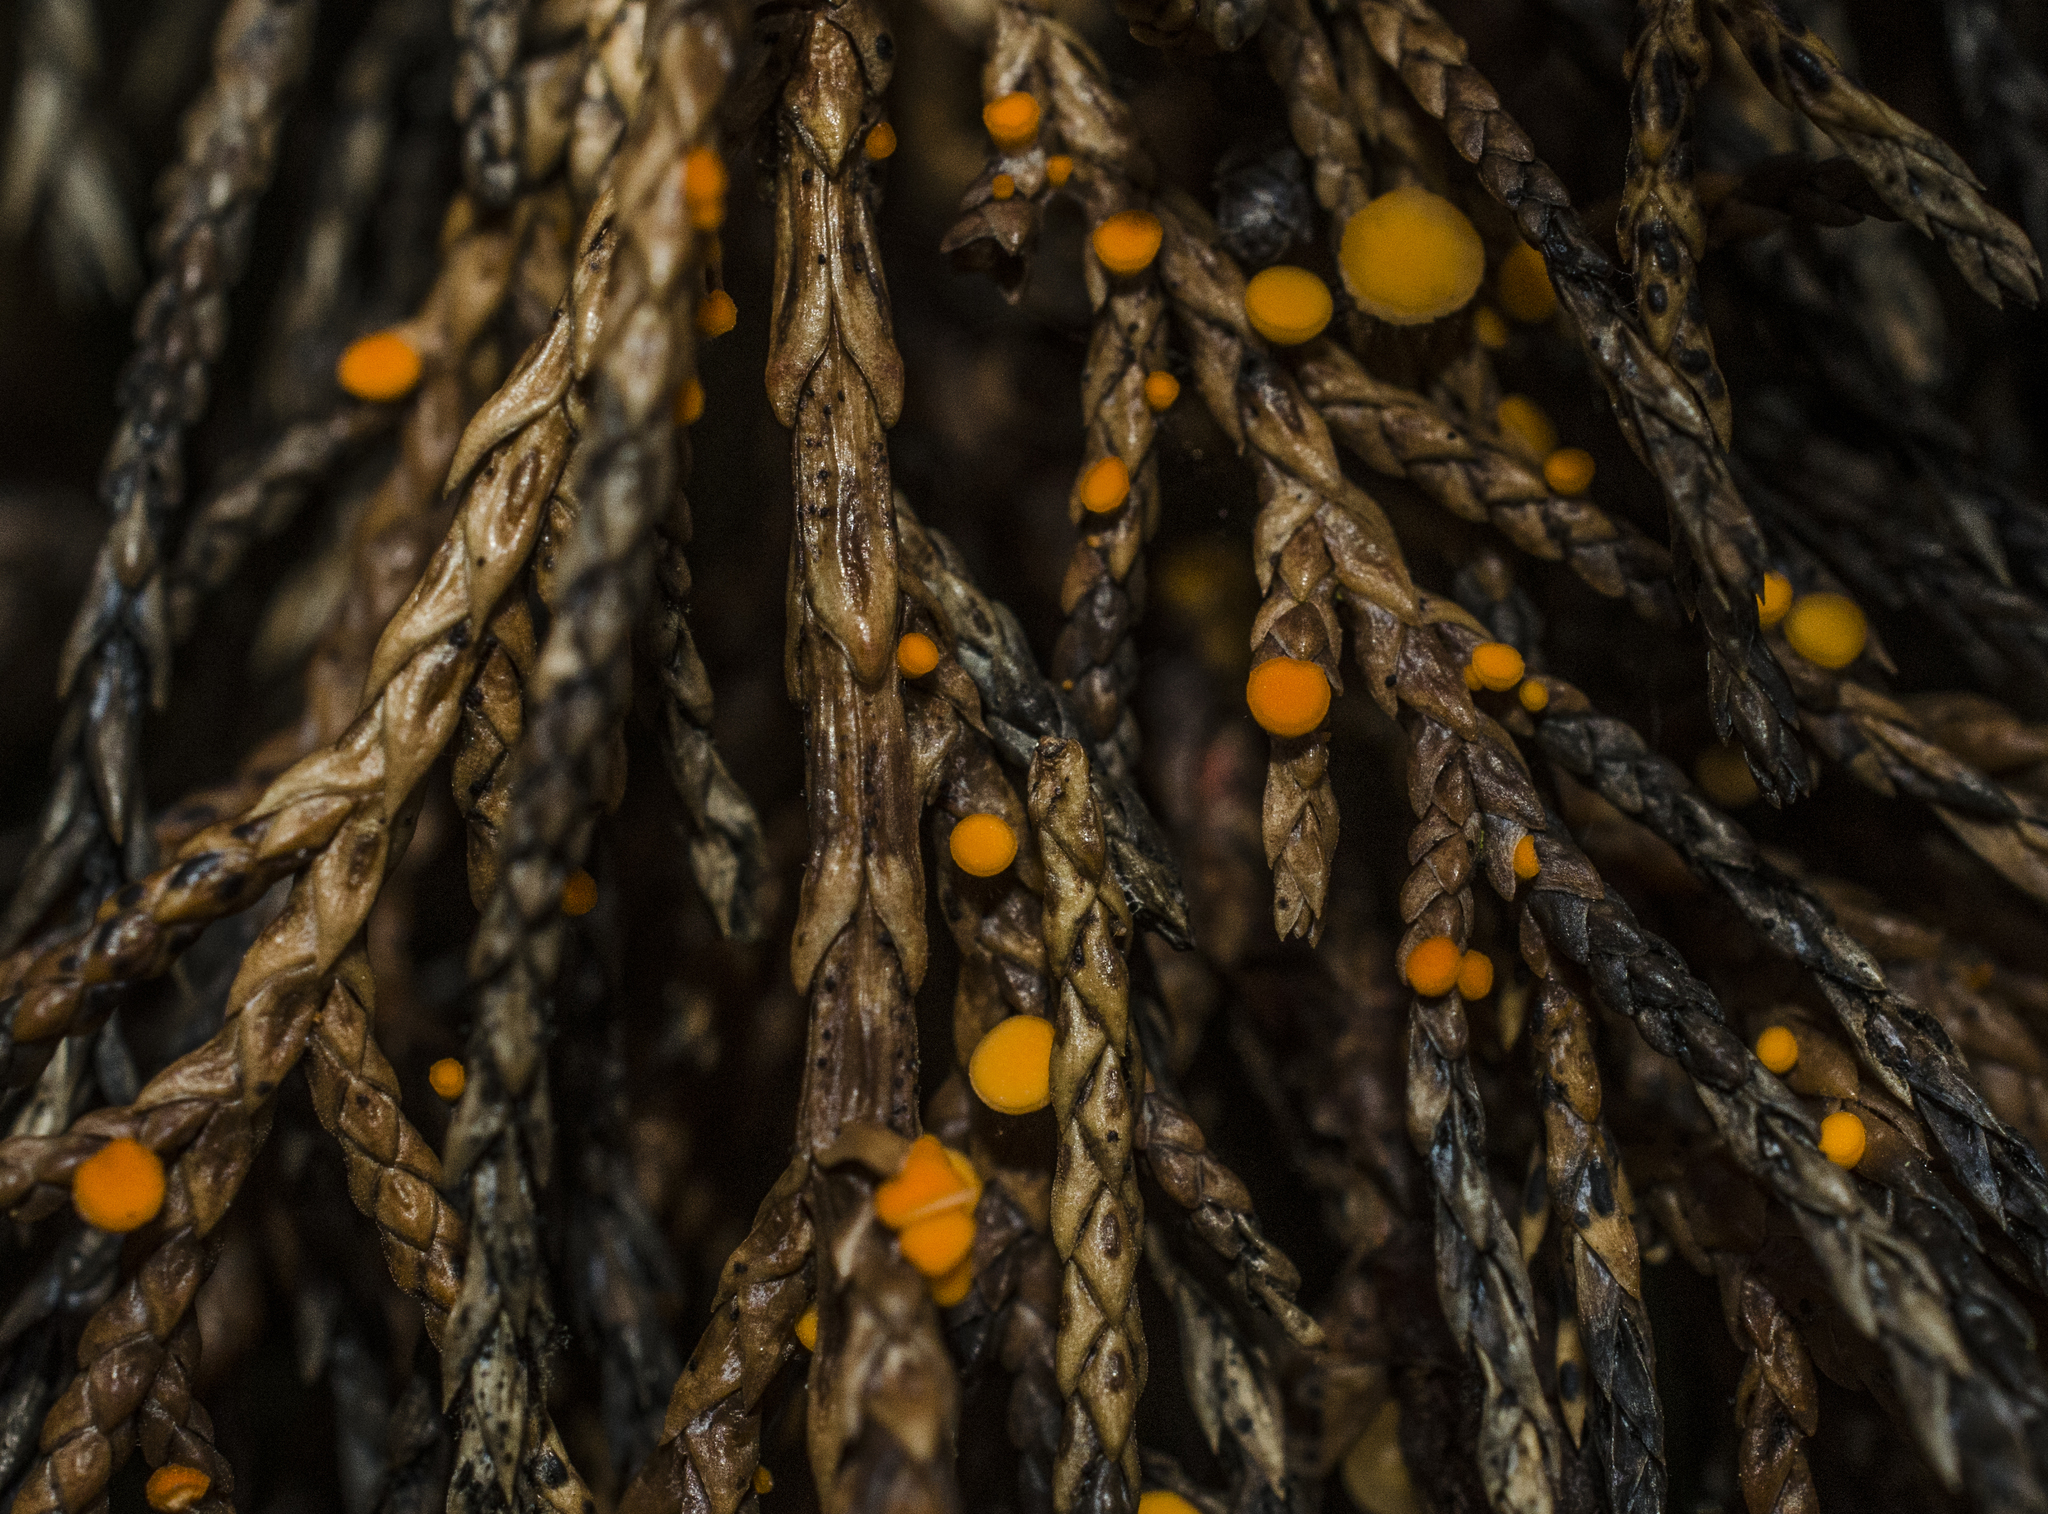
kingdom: Fungi
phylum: Ascomycota
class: Pezizomycetes
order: Pezizales
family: Sarcoscyphaceae
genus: Pithya
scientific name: Pithya cupressina
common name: Juniper disco
